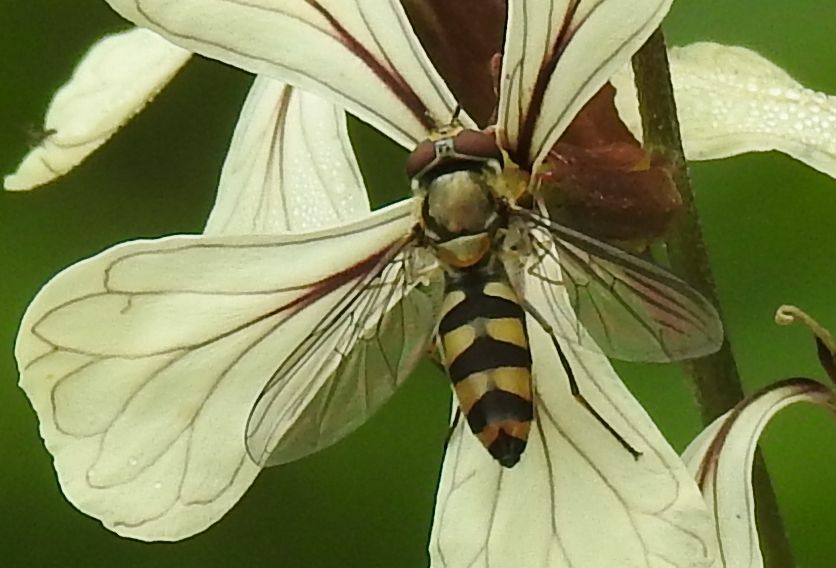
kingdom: Animalia
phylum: Arthropoda
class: Insecta
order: Diptera
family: Syrphidae
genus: Meliscaeva
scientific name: Meliscaeva auricollis
